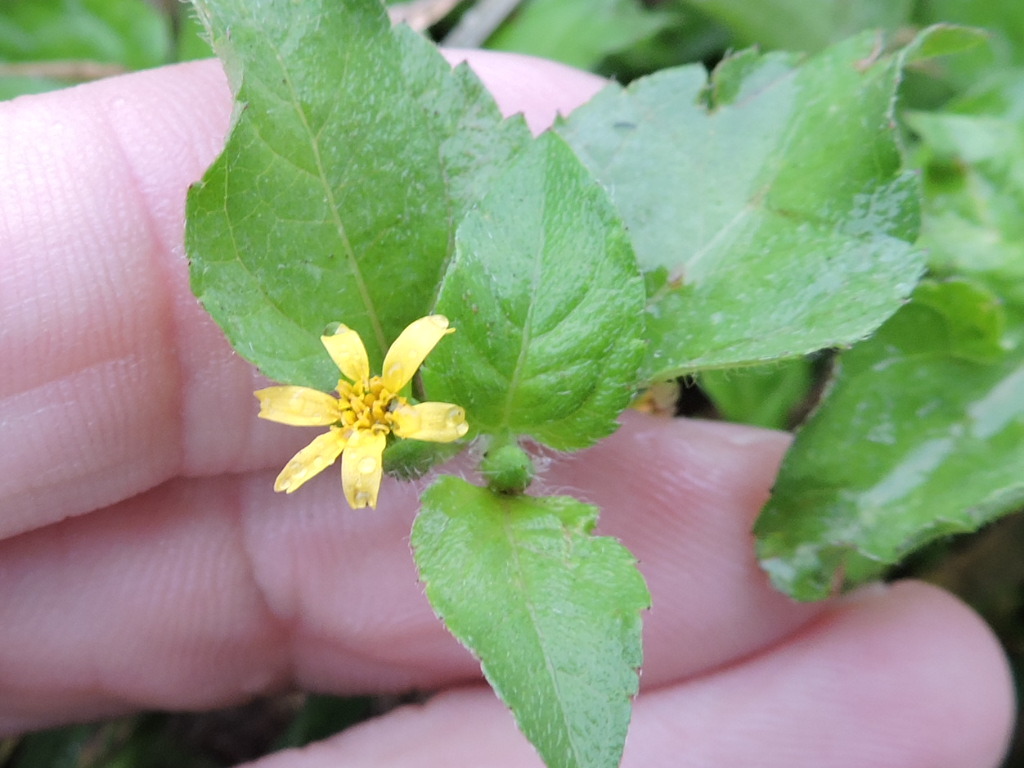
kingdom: Plantae
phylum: Tracheophyta
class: Magnoliopsida
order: Asterales
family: Asteraceae
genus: Calyptocarpus
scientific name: Calyptocarpus vialis
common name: Straggler daisy
